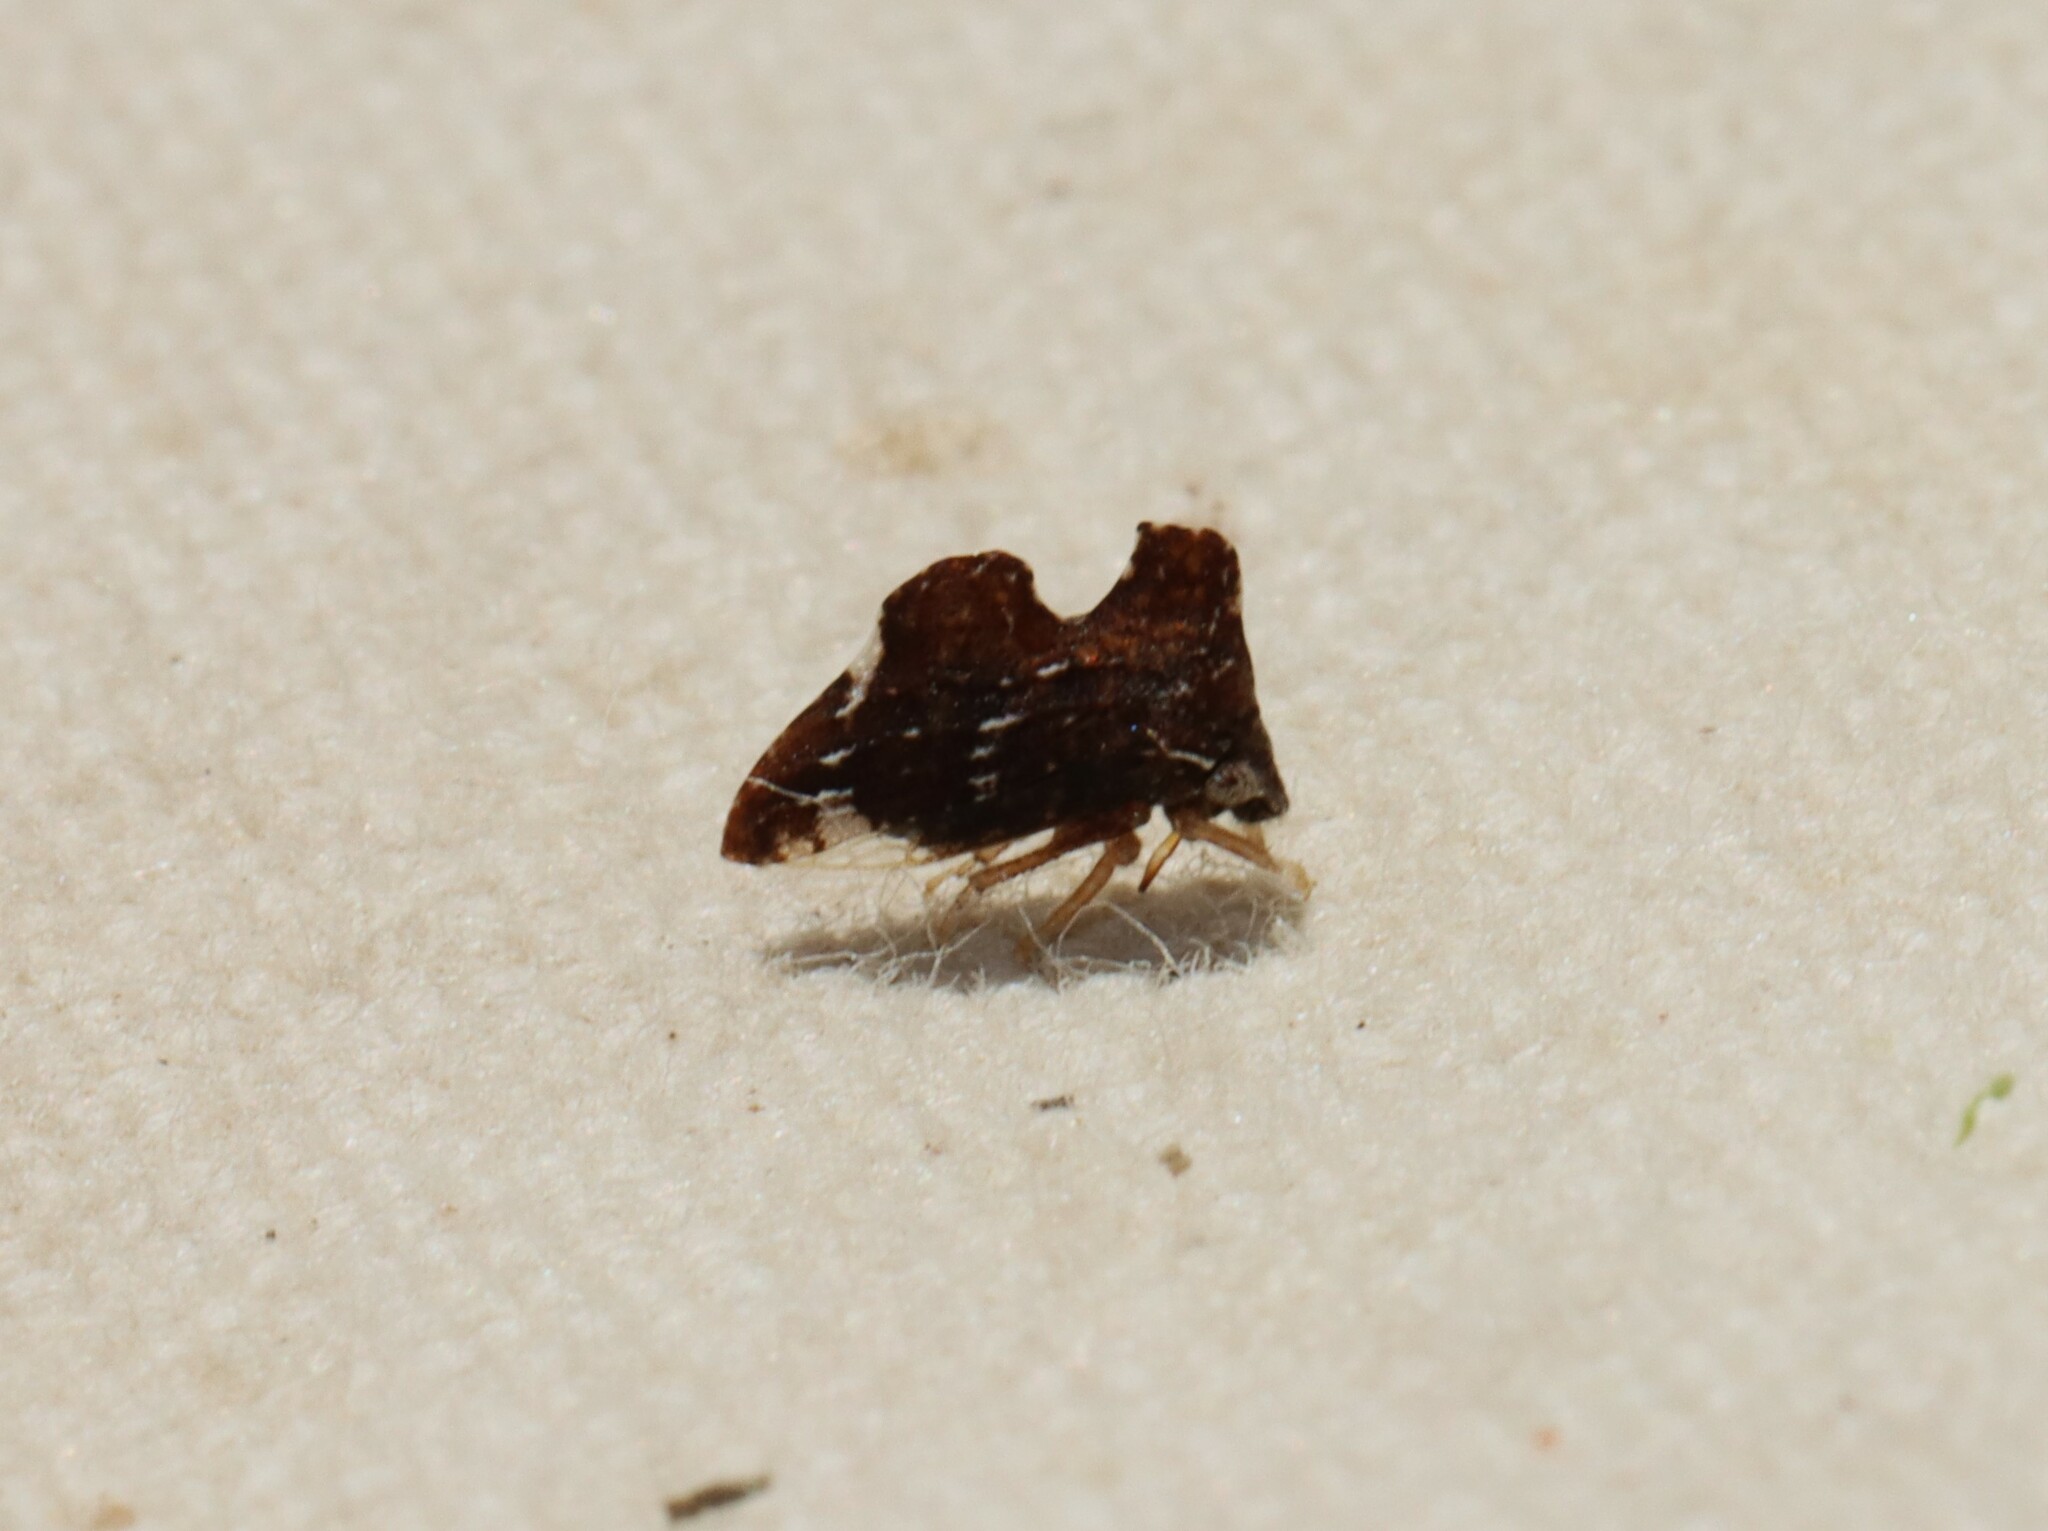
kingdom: Animalia
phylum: Arthropoda
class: Insecta
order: Hemiptera
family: Membracidae
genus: Entylia
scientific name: Entylia carinata
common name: Keeled treehopper
